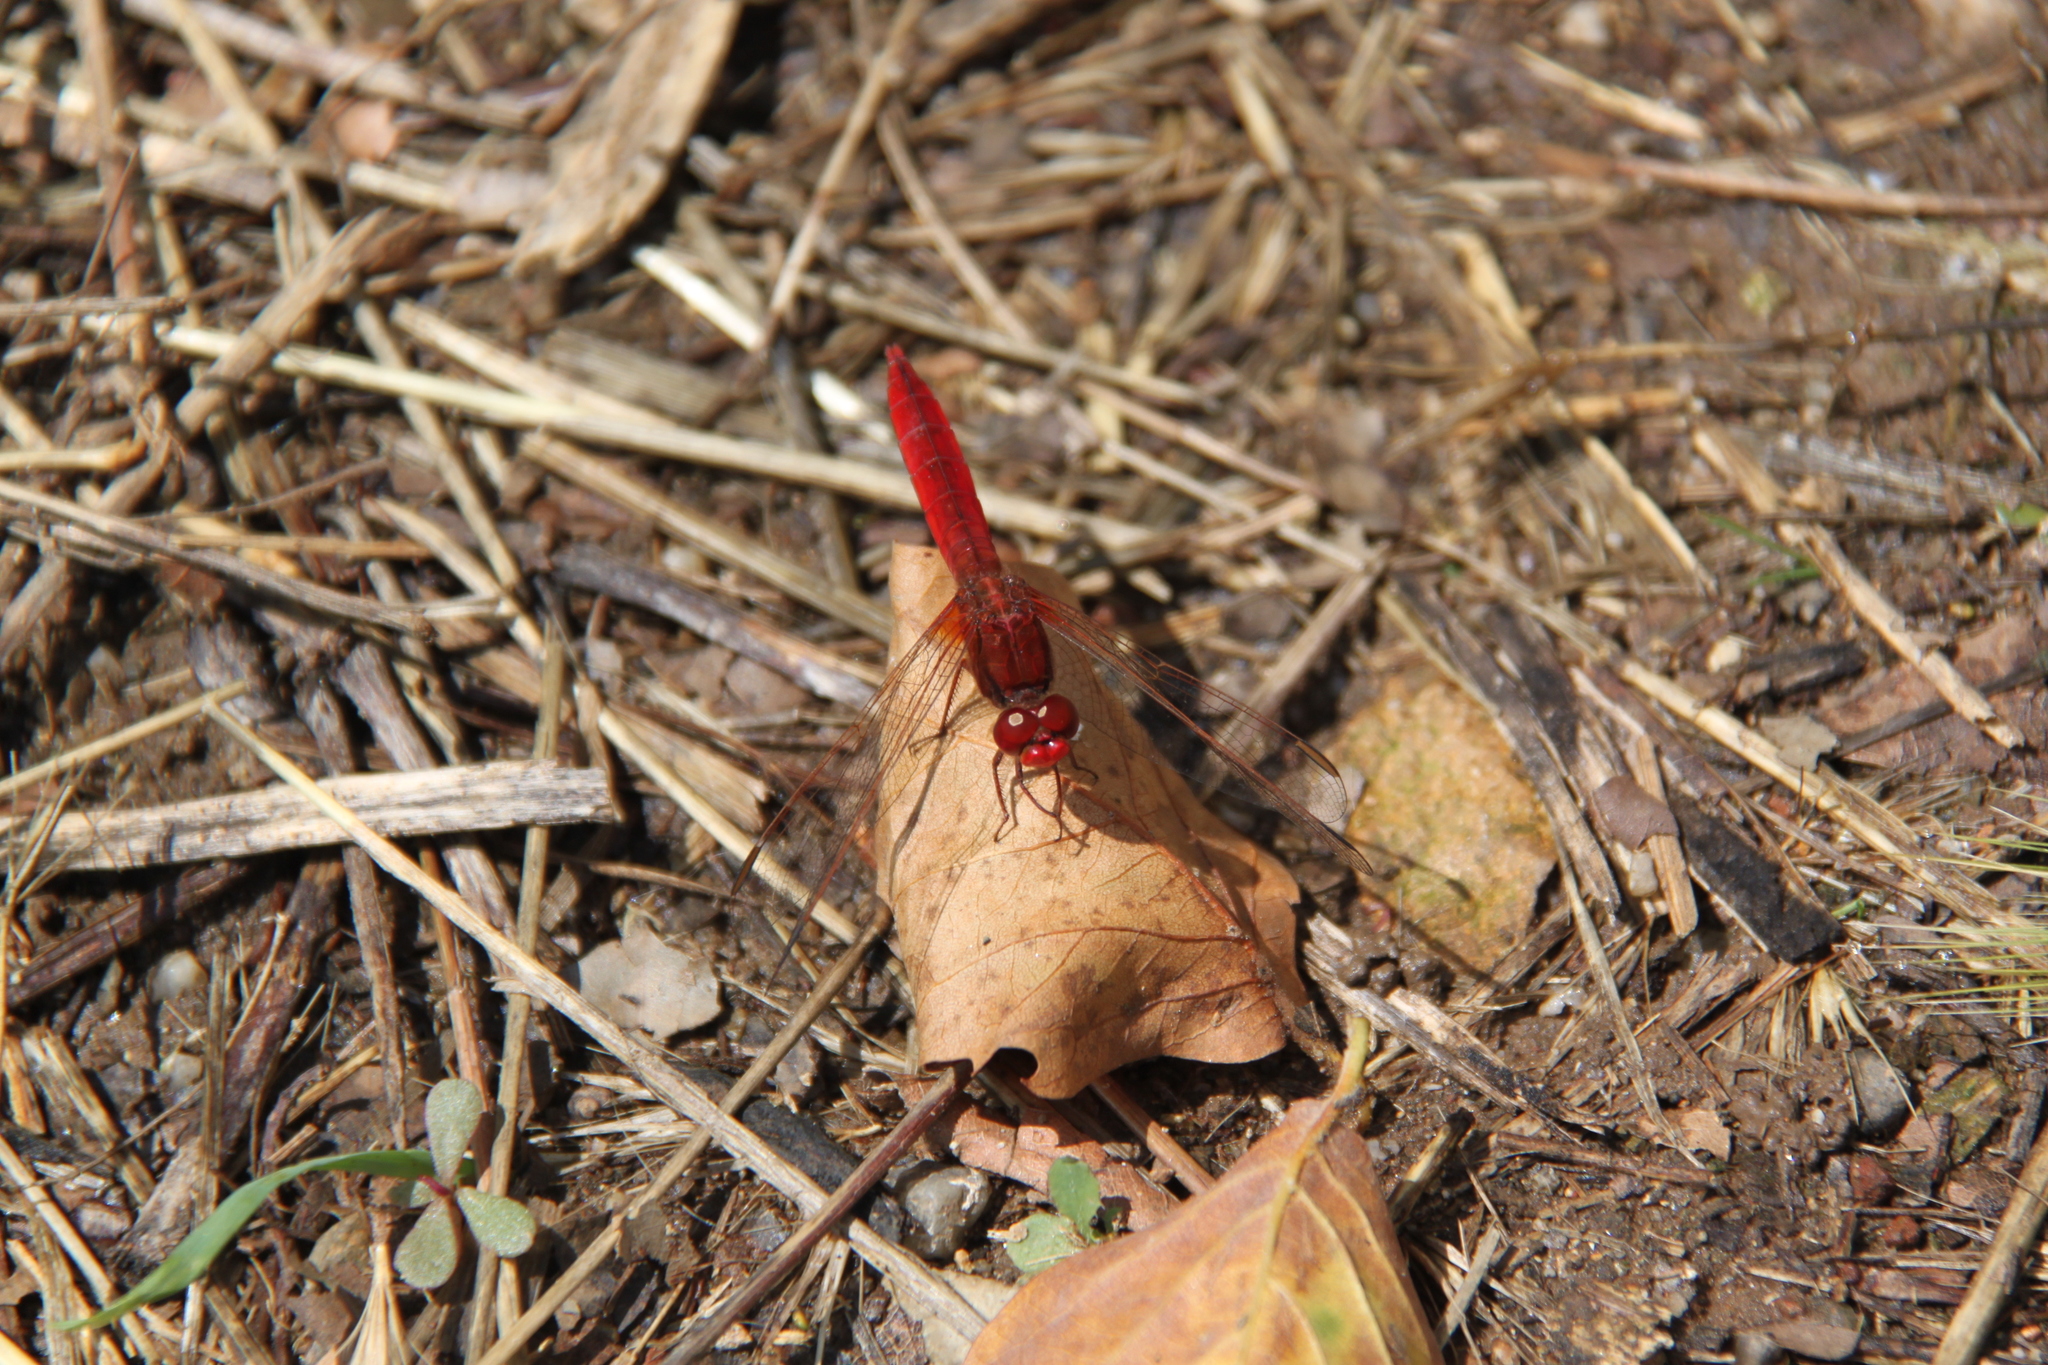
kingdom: Animalia
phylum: Arthropoda
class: Insecta
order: Odonata
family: Libellulidae
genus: Crocothemis
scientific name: Crocothemis erythraea
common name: Scarlet dragonfly
